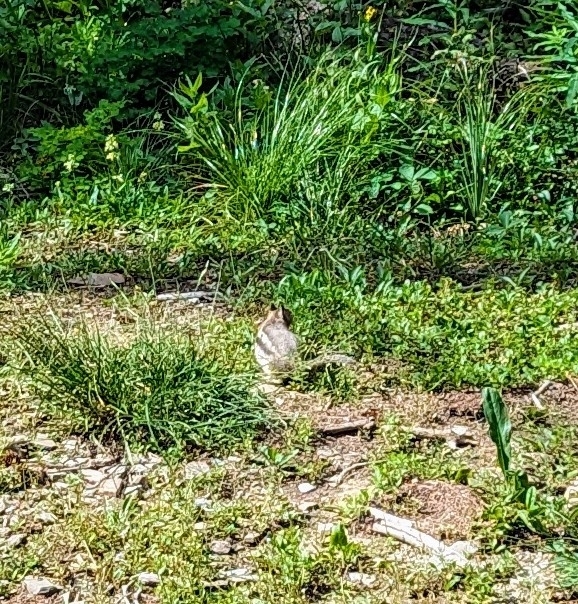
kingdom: Animalia
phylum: Chordata
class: Mammalia
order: Rodentia
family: Sciuridae
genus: Callospermophilus
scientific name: Callospermophilus lateralis
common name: Golden-mantled ground squirrel
